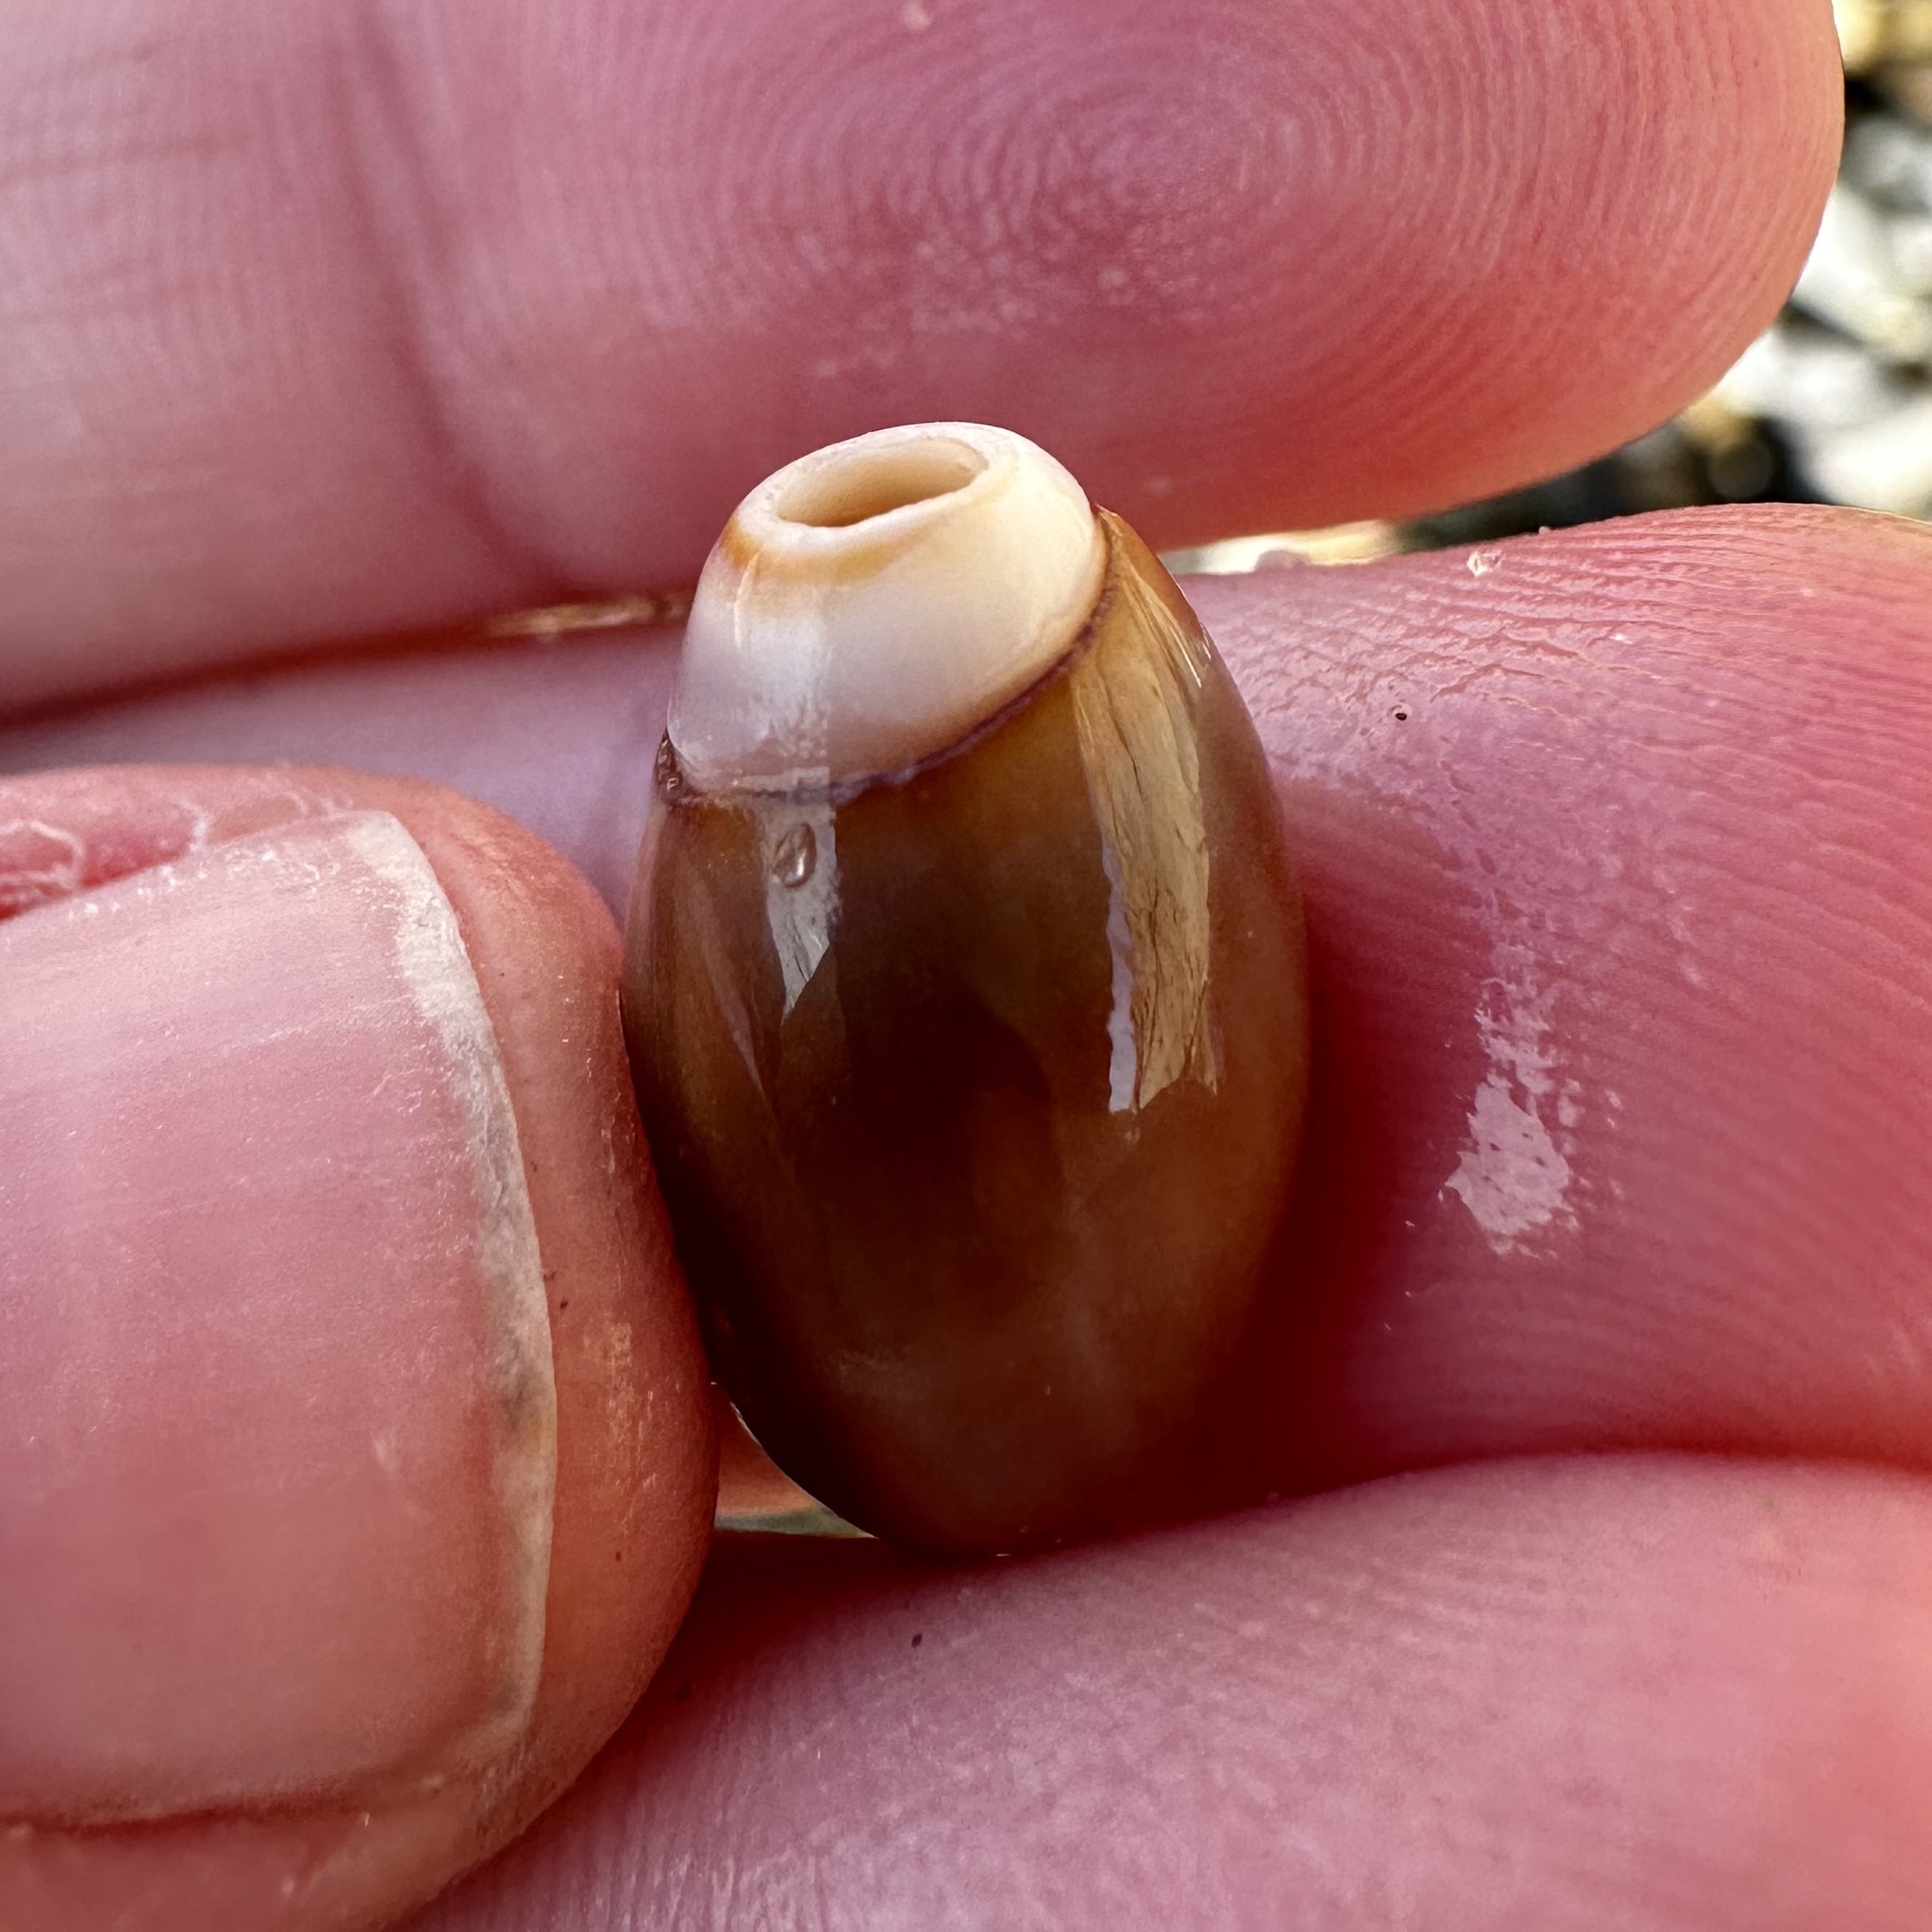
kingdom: Animalia
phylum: Mollusca
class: Gastropoda
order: Neogastropoda
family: Olividae
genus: Callianax
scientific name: Callianax biplicata
